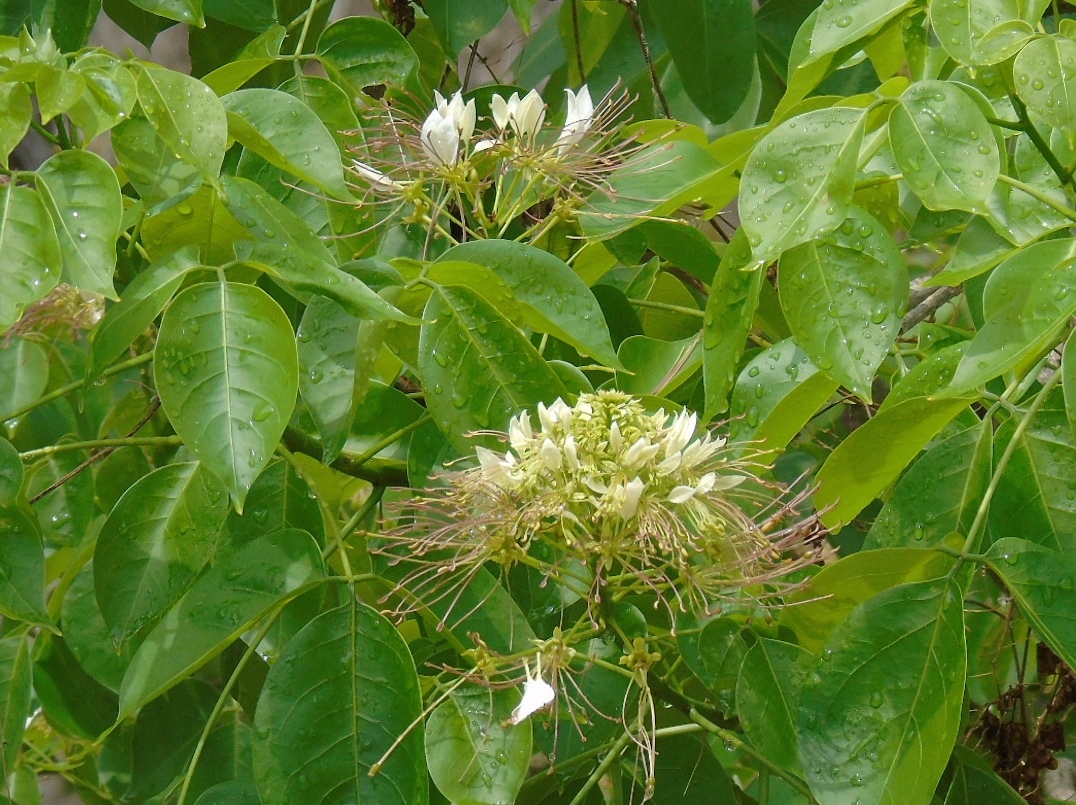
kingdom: Plantae
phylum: Tracheophyta
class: Magnoliopsida
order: Brassicales
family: Capparaceae
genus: Crateva
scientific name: Crateva tapia
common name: Garlic-pear
